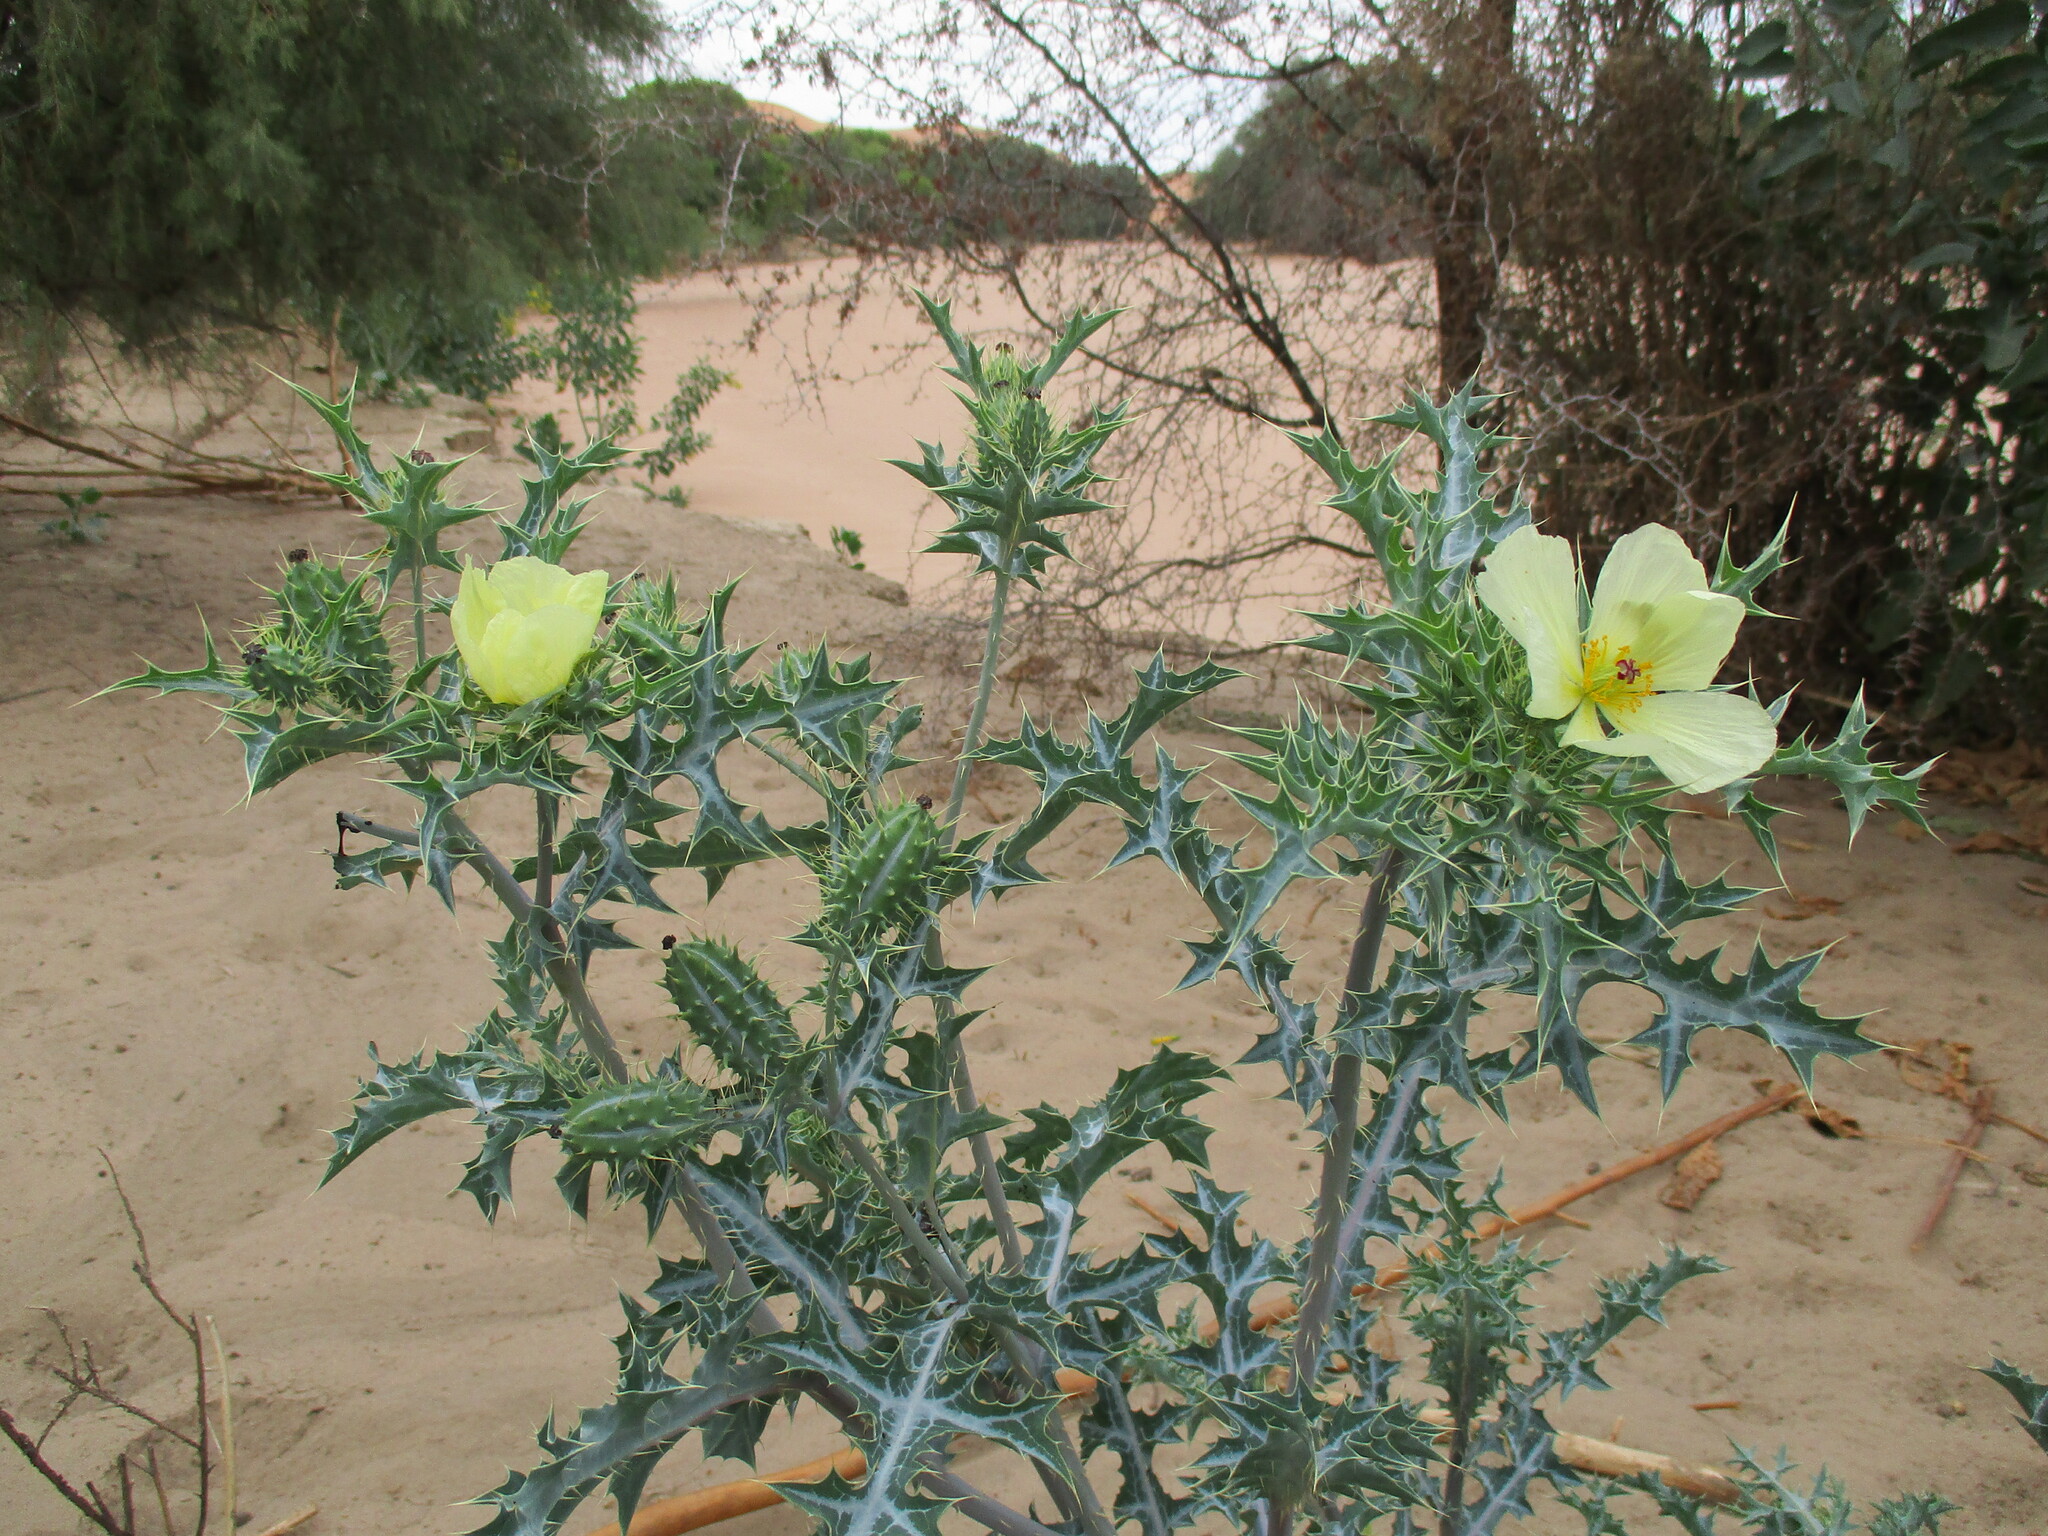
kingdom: Plantae
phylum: Tracheophyta
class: Magnoliopsida
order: Ranunculales
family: Papaveraceae
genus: Argemone
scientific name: Argemone ochroleuca
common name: White-flower mexican-poppy
